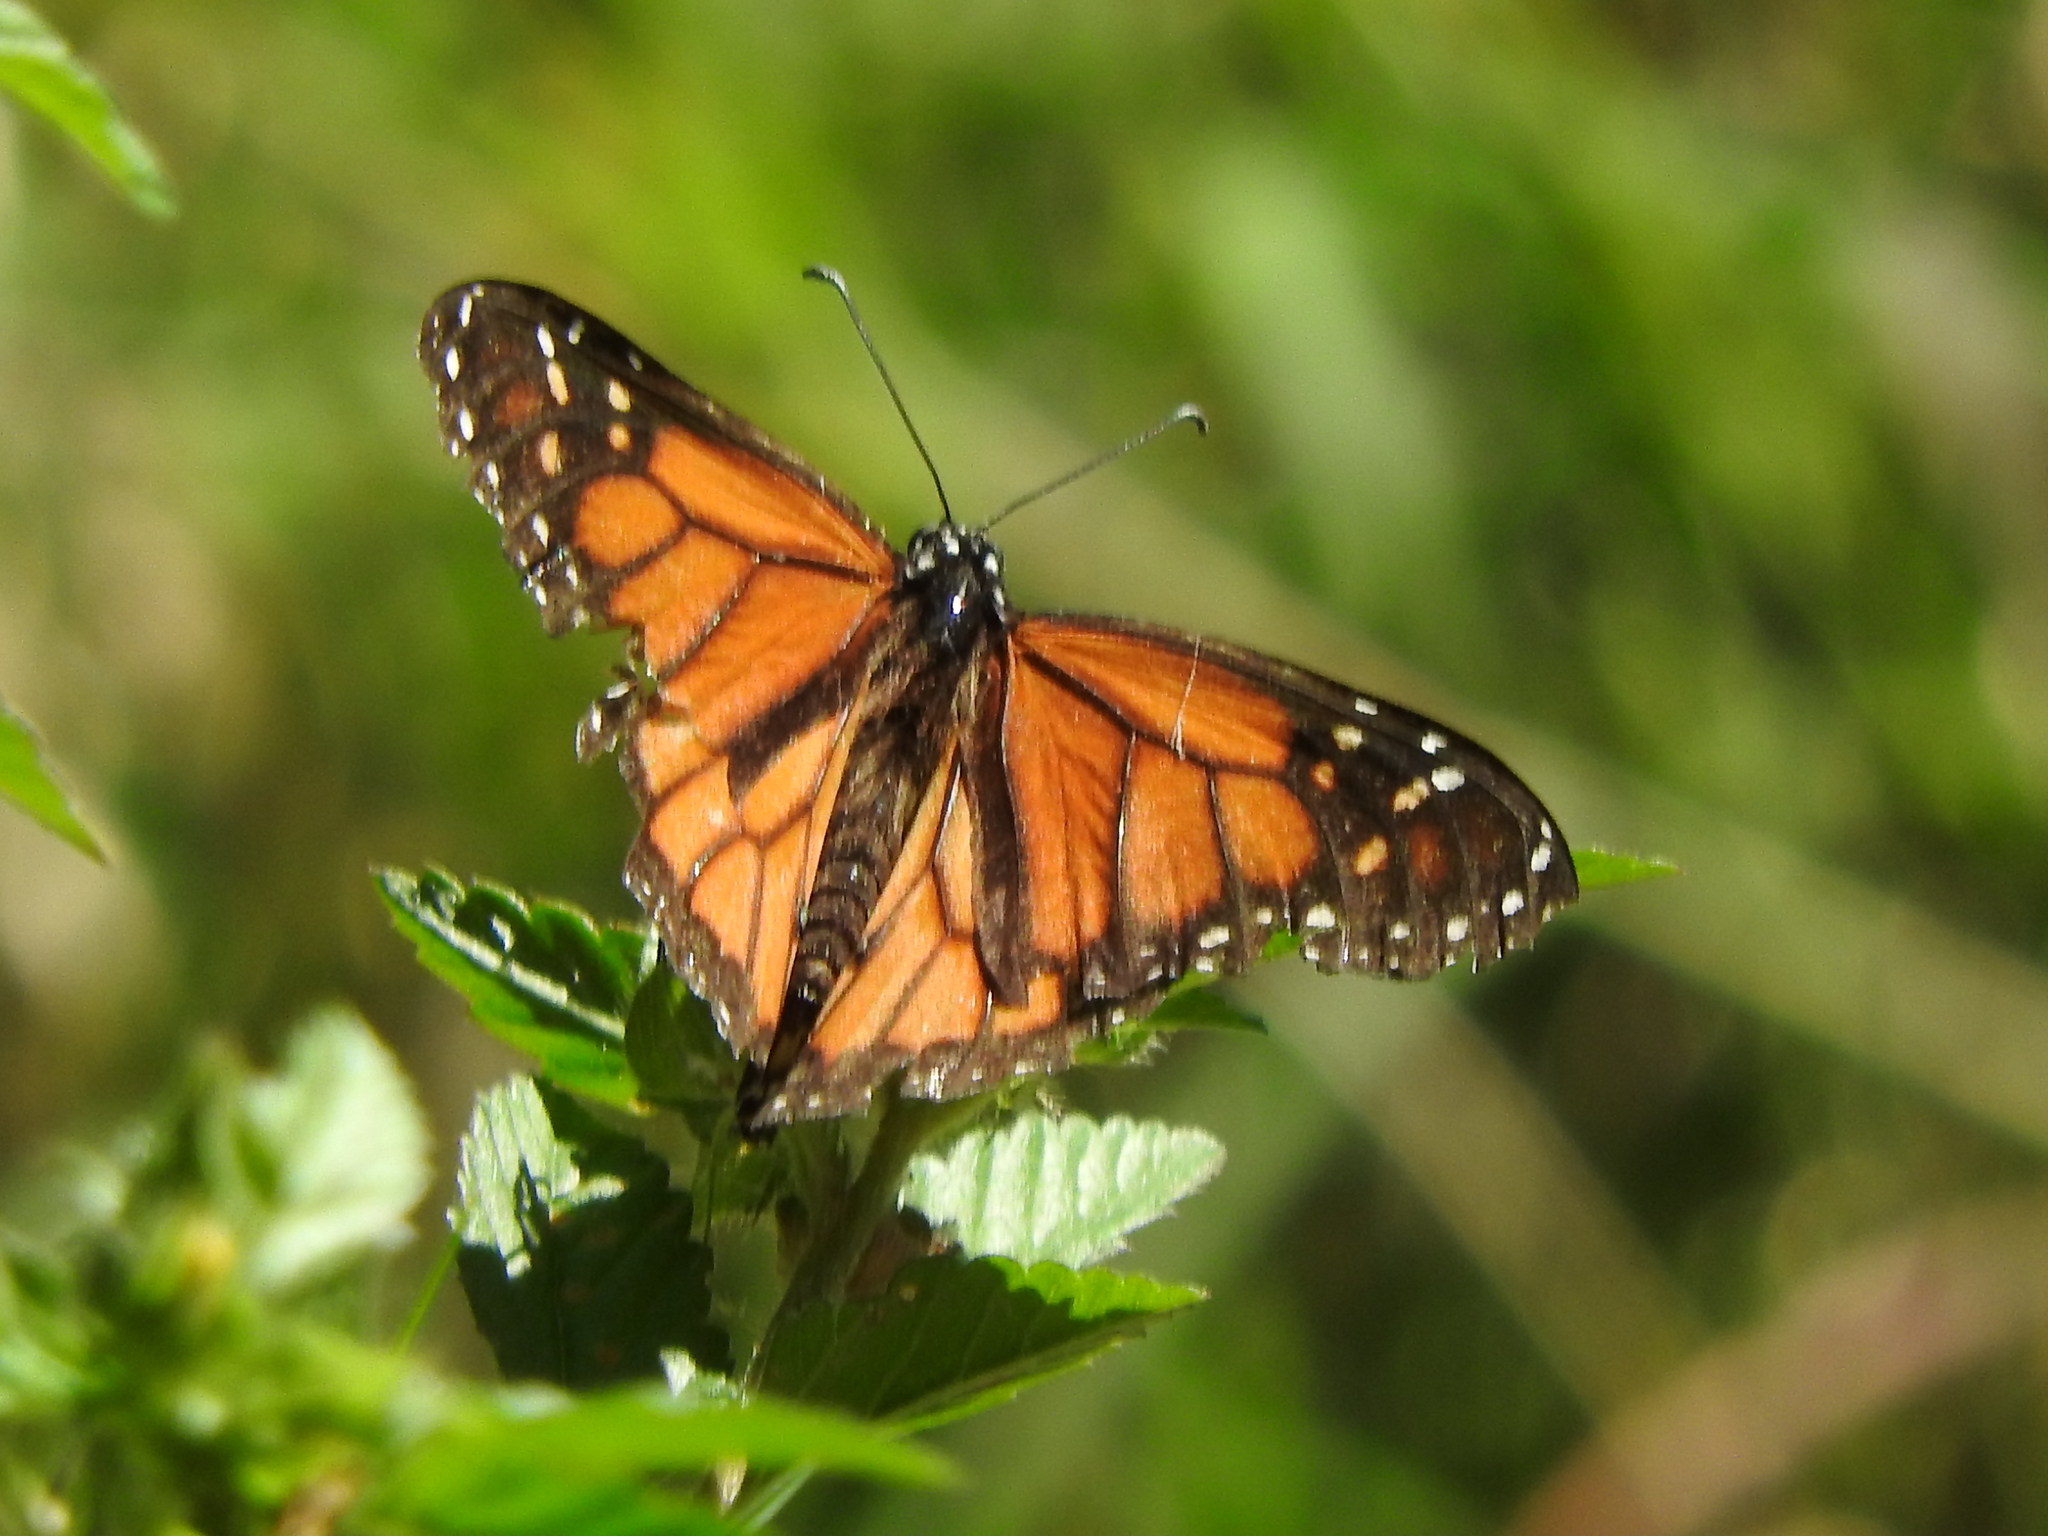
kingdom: Animalia
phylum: Arthropoda
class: Insecta
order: Lepidoptera
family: Nymphalidae
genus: Danaus
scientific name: Danaus plexippus
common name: Monarch
